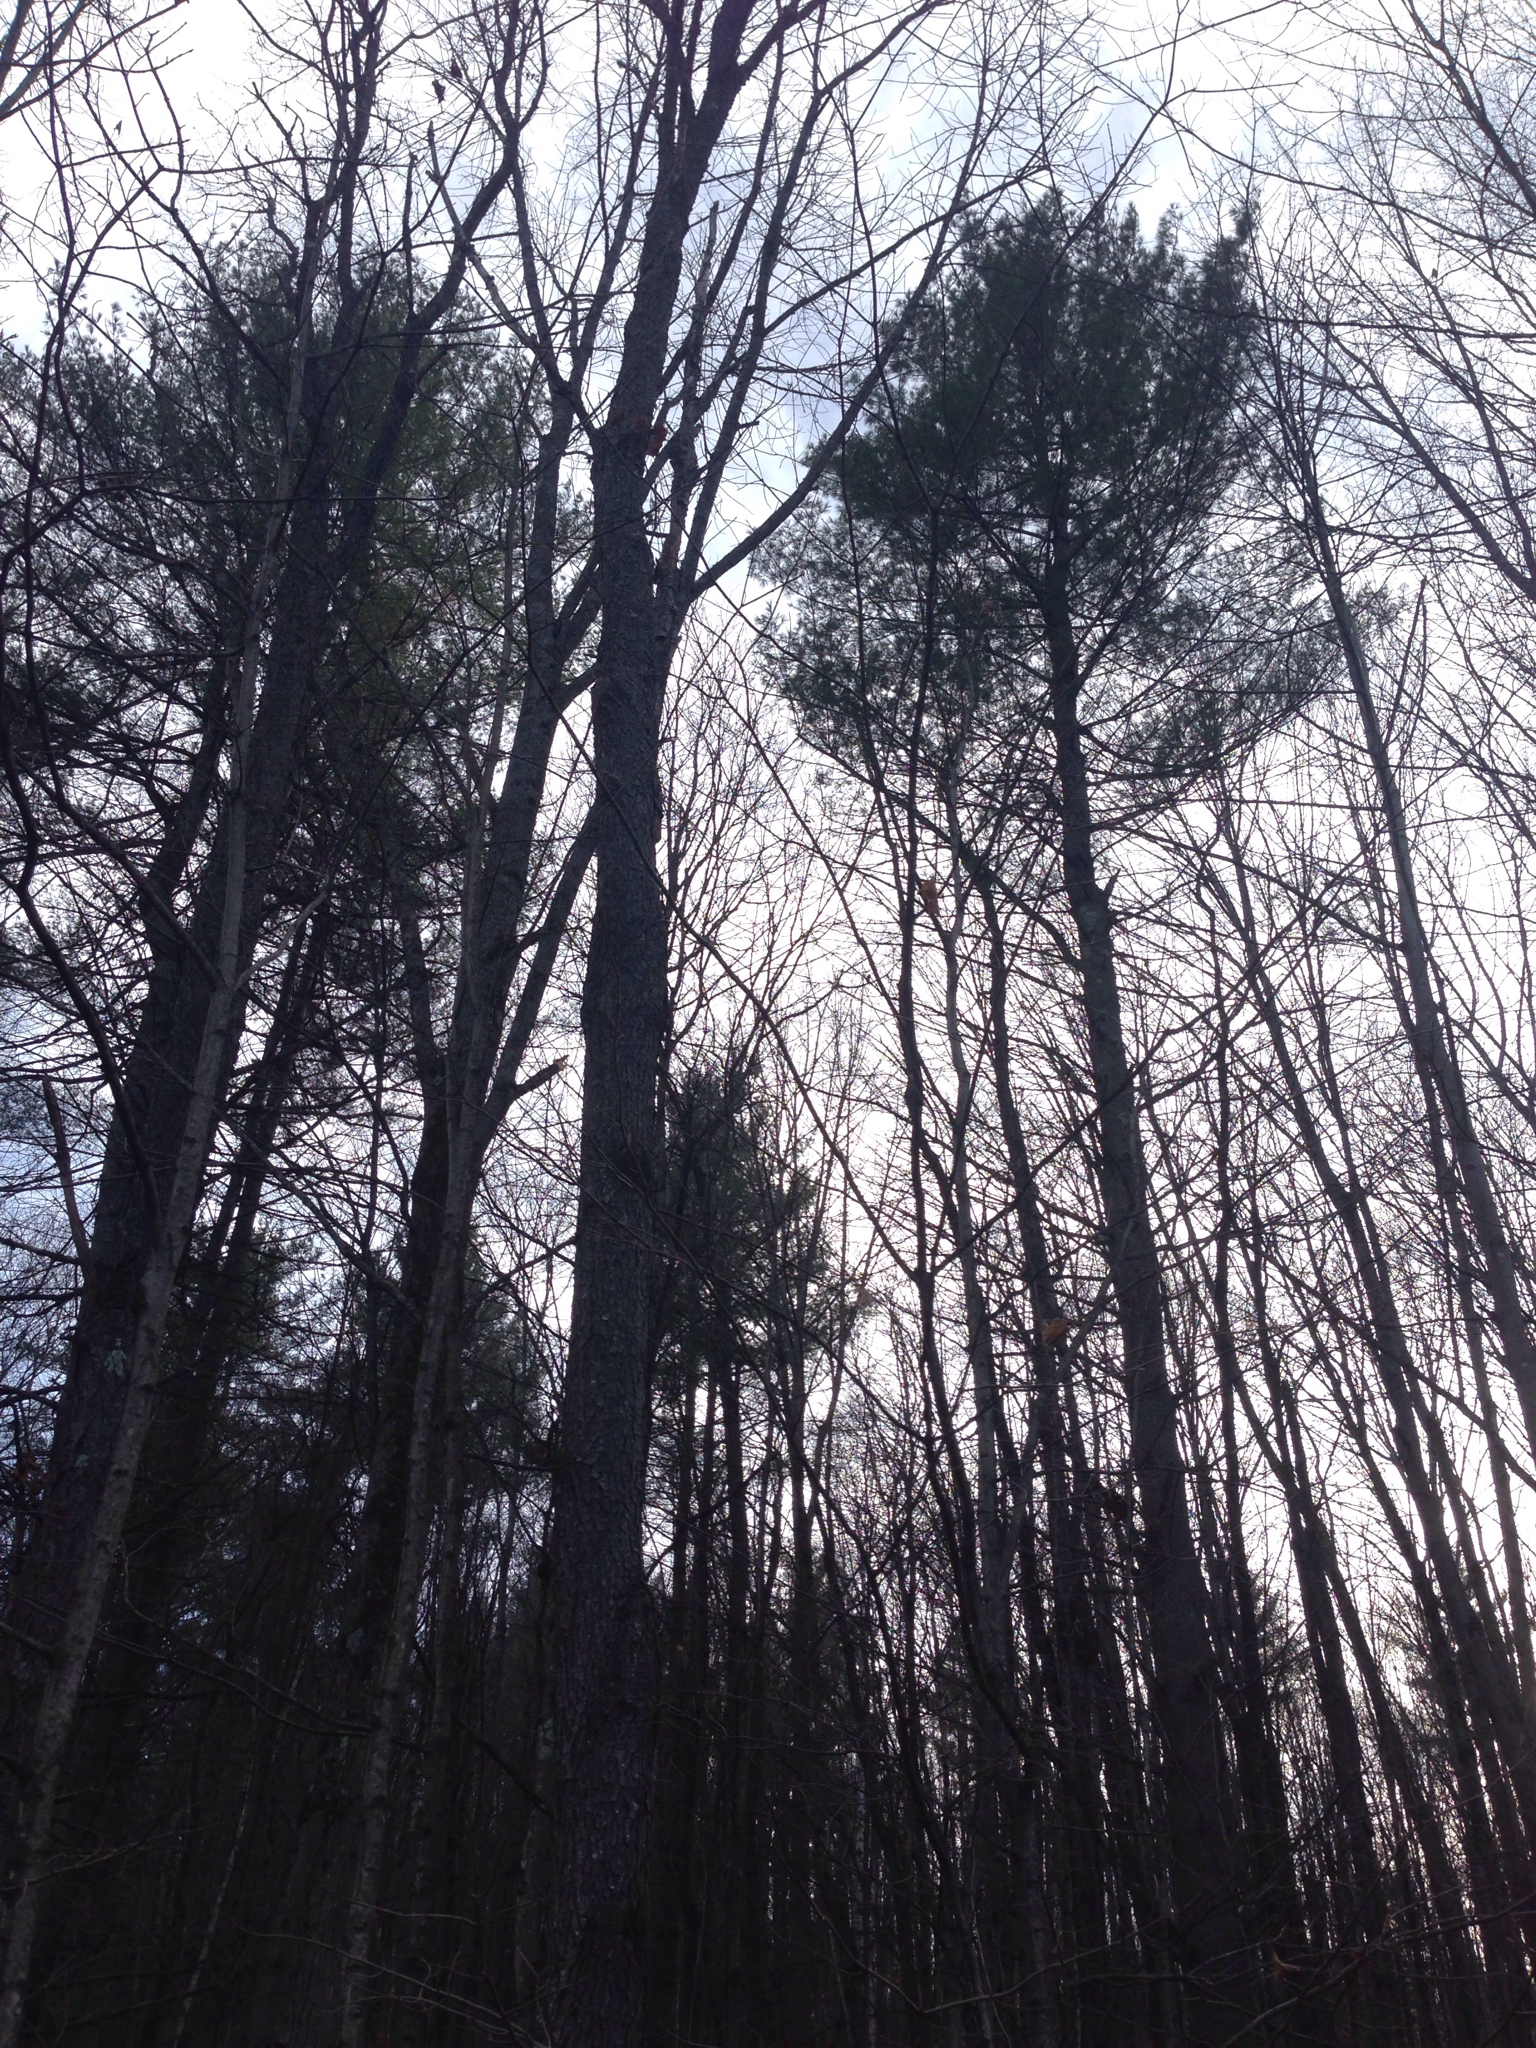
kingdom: Plantae
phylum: Tracheophyta
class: Pinopsida
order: Pinales
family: Pinaceae
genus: Pinus
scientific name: Pinus strobus
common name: Weymouth pine
